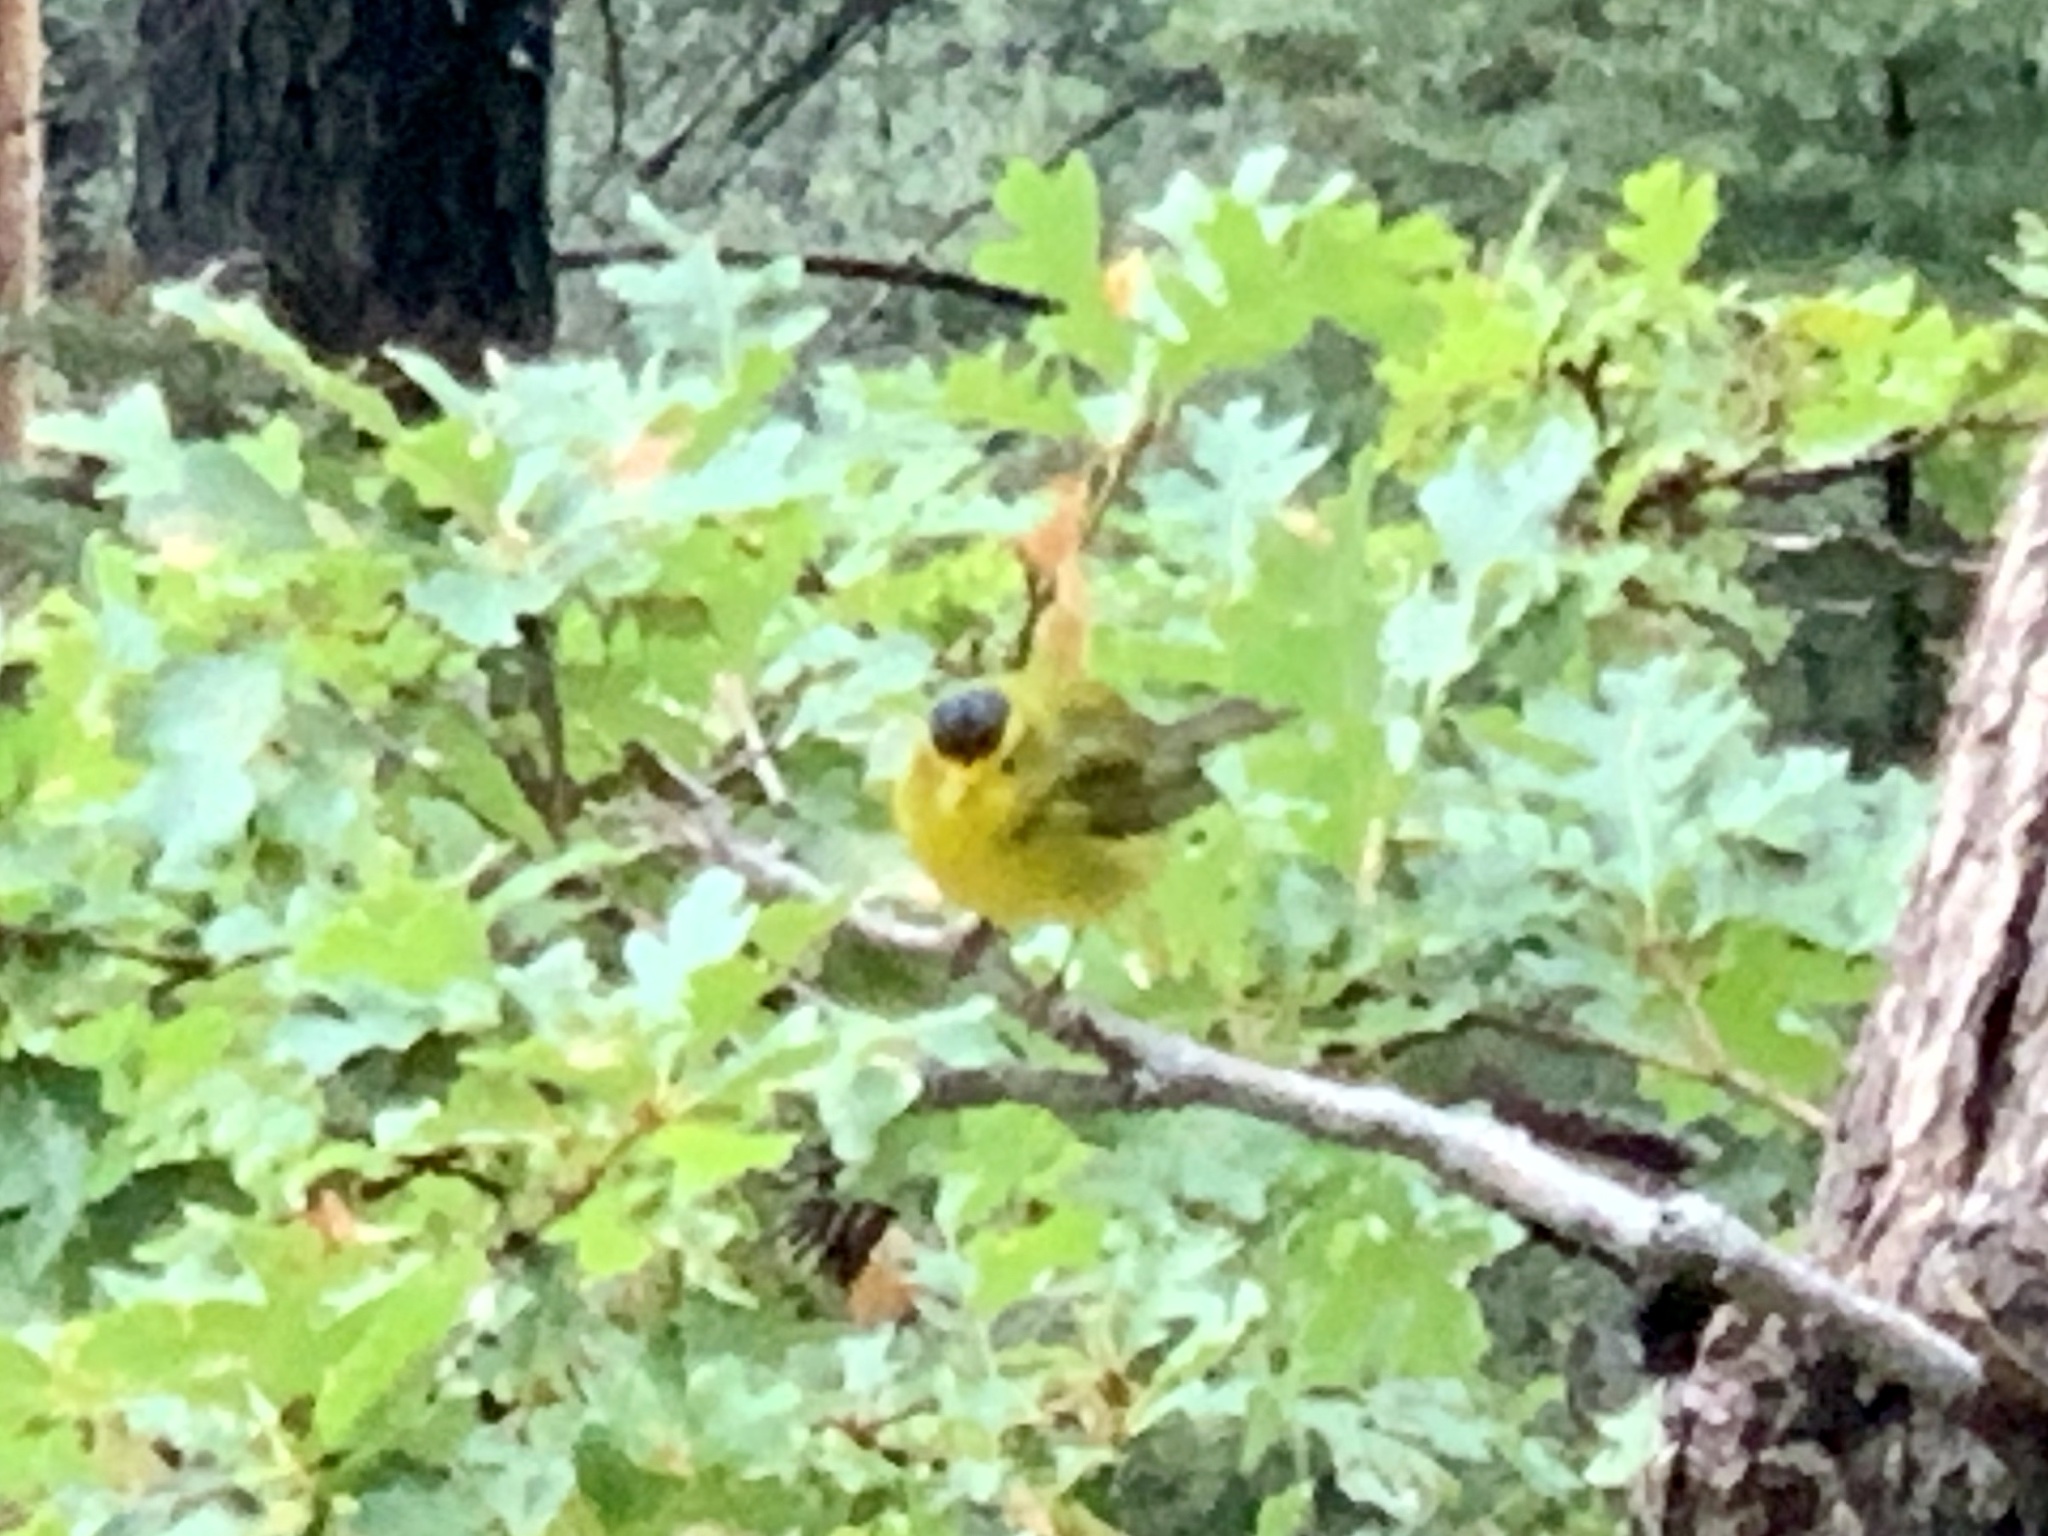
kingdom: Animalia
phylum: Chordata
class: Aves
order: Passeriformes
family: Parulidae
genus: Cardellina
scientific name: Cardellina pusilla
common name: Wilson's warbler
